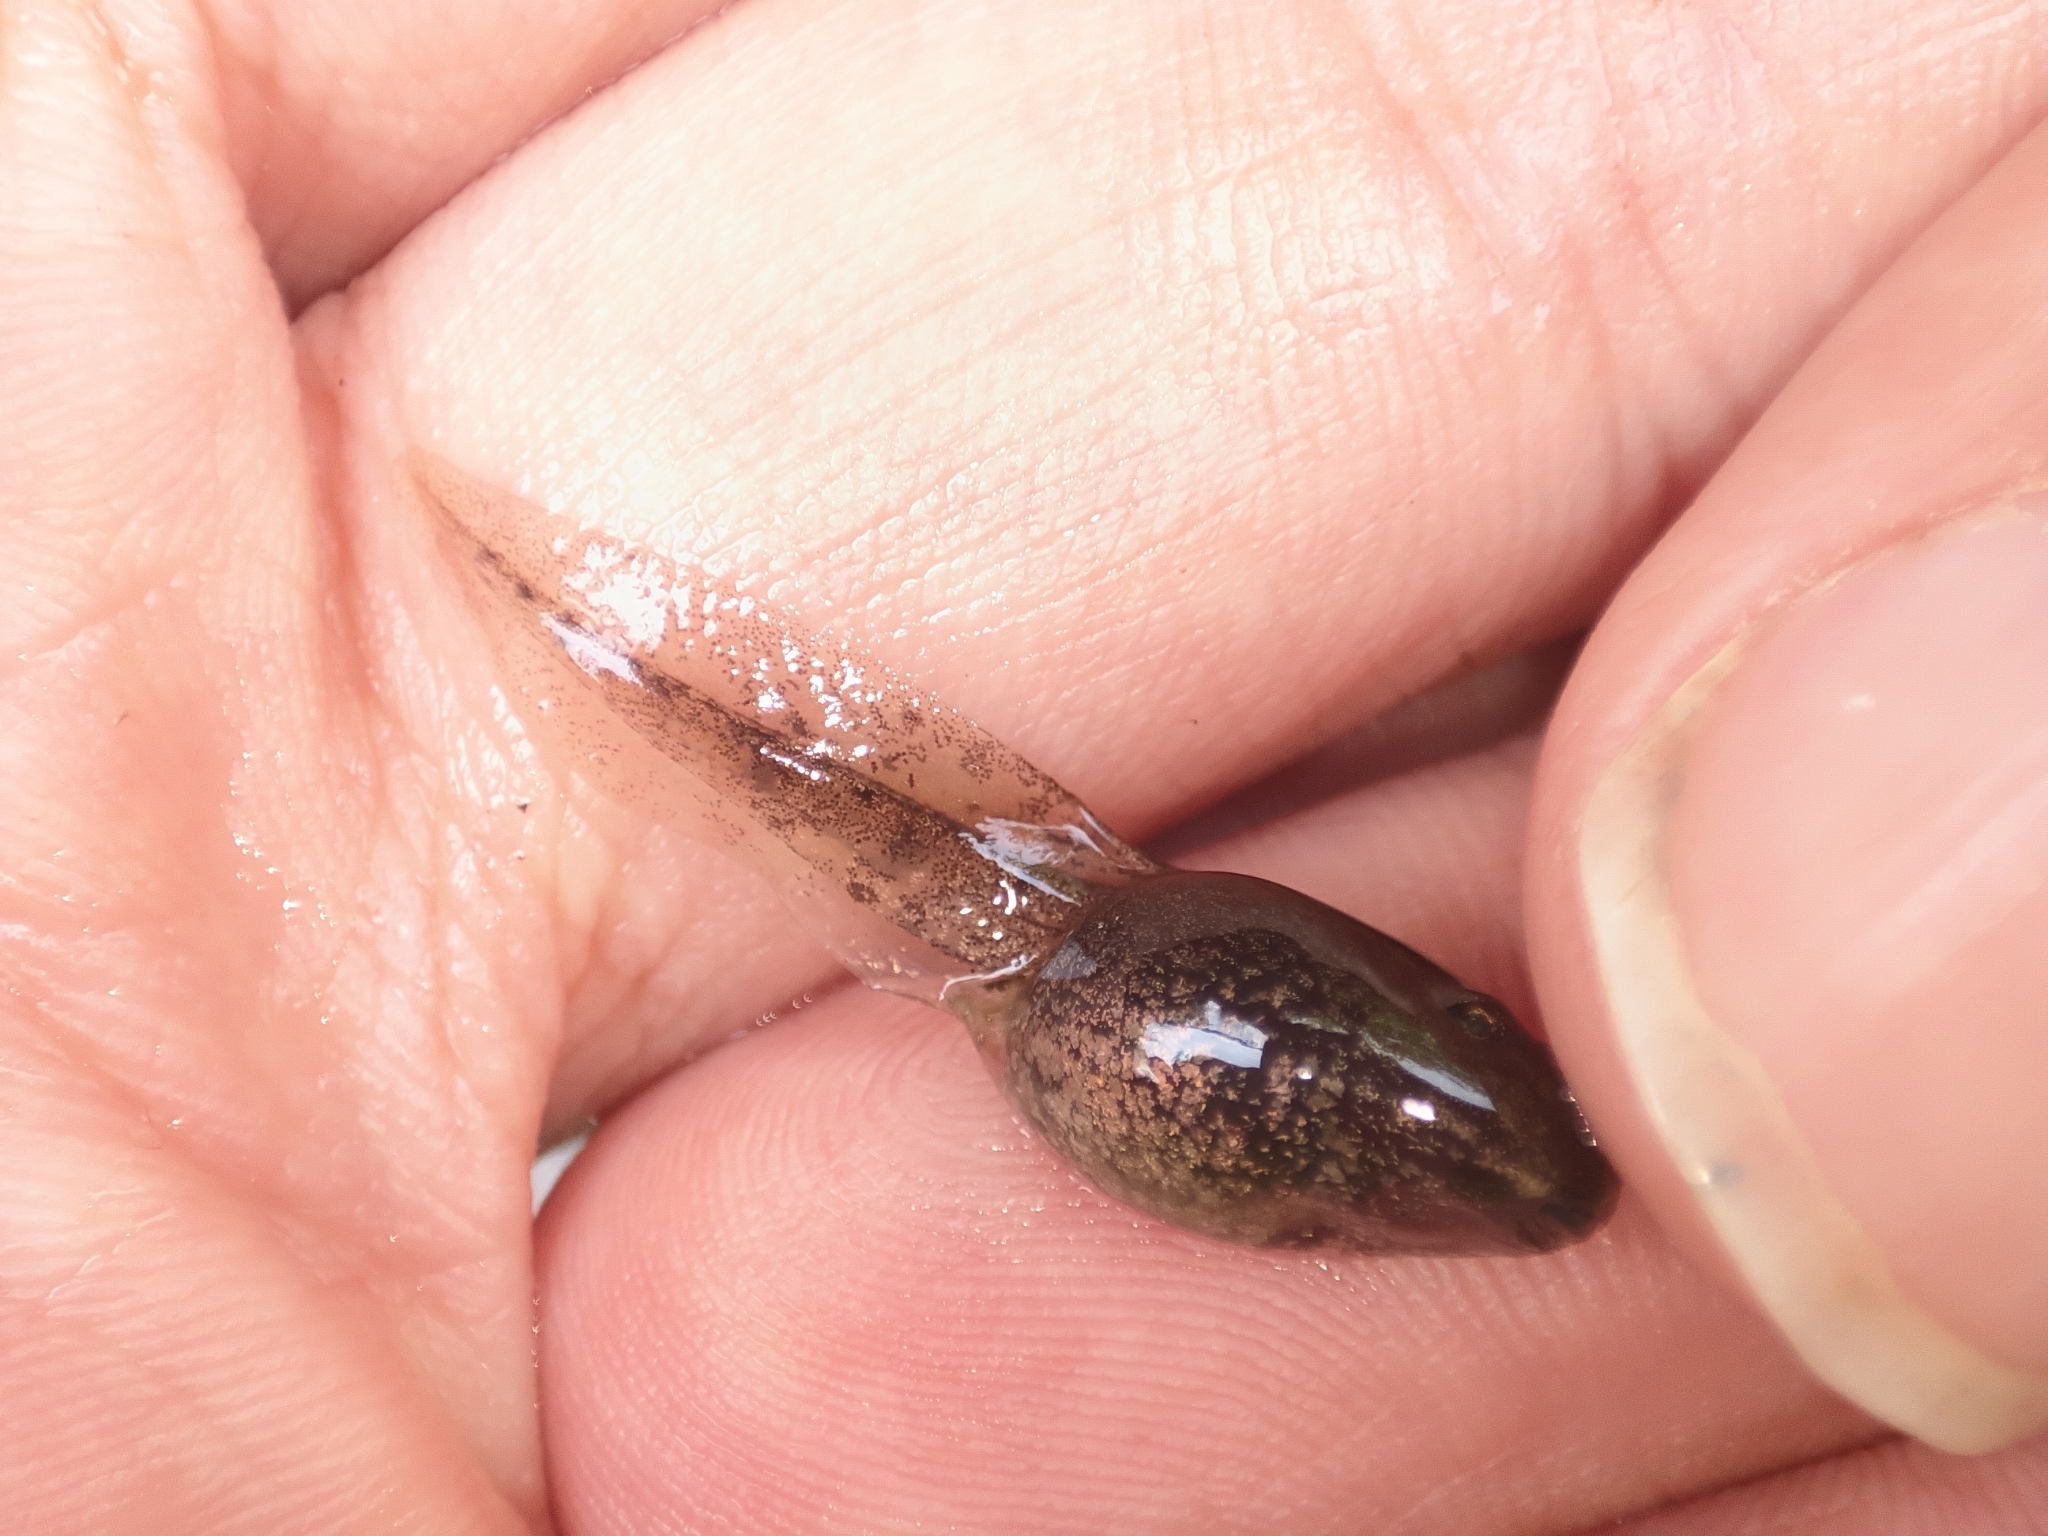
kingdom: Animalia
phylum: Chordata
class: Amphibia
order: Anura
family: Ranidae
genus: Rana
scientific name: Rana macrocnemis
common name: Banded frog
